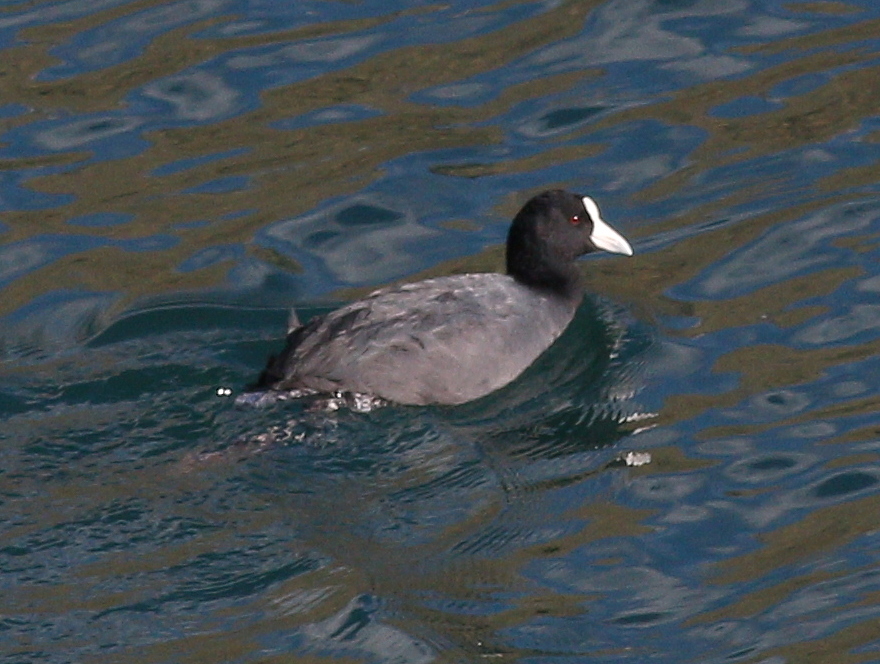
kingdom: Animalia
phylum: Chordata
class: Aves
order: Gruiformes
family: Rallidae
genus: Fulica
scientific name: Fulica ardesiaca
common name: Andean coot
